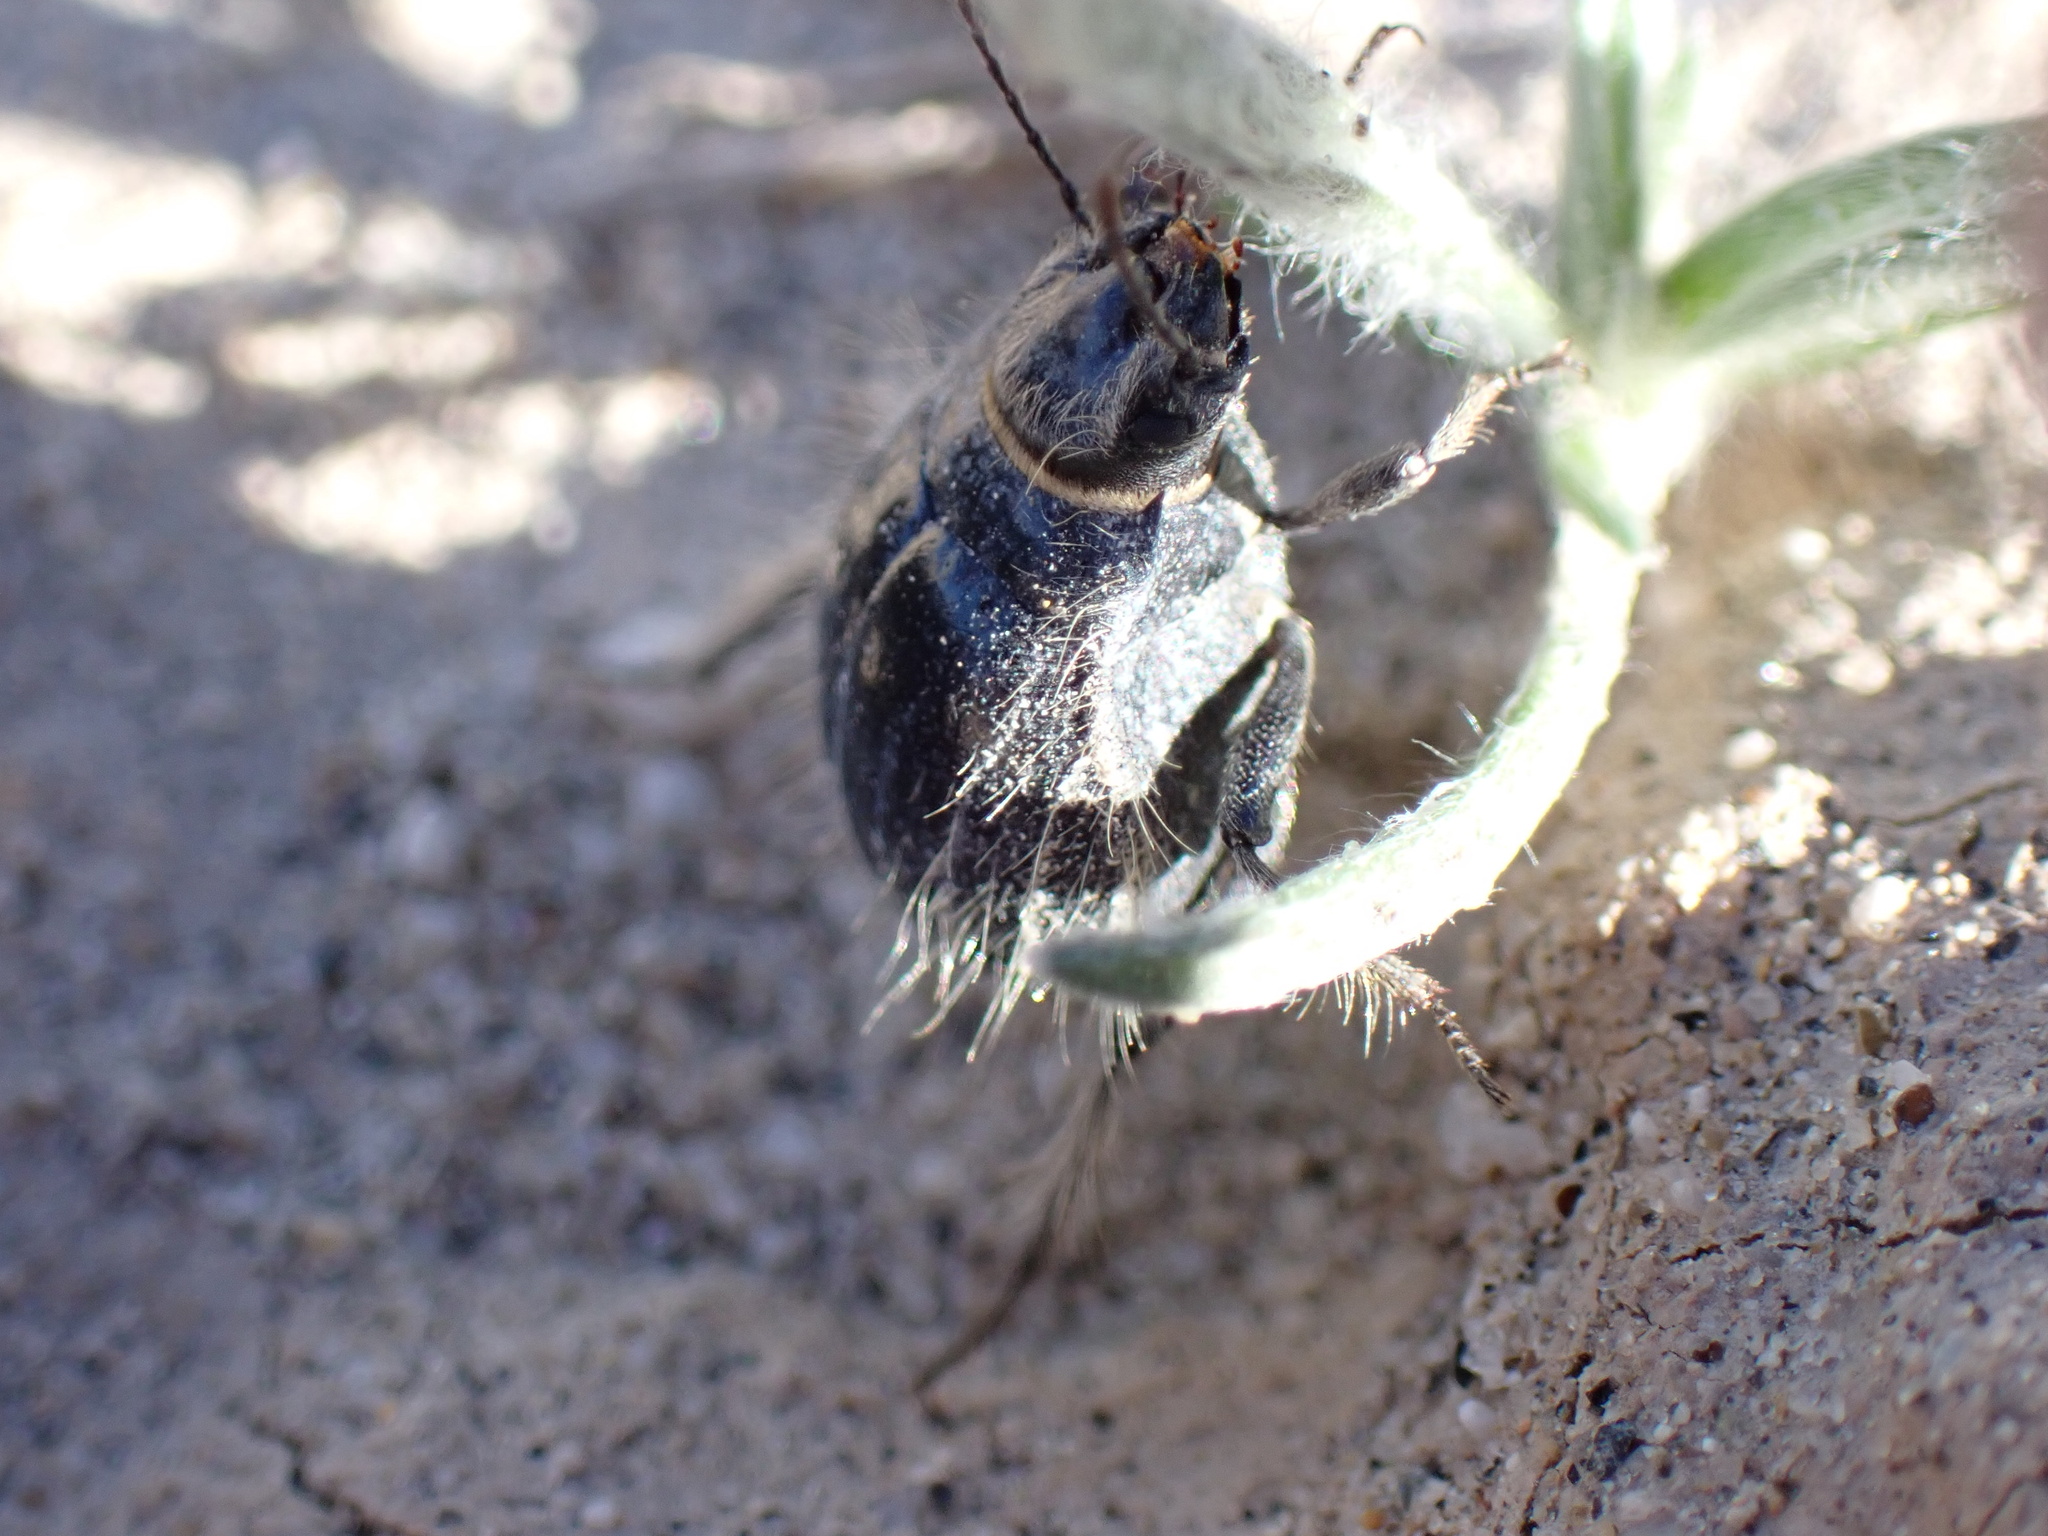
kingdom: Animalia
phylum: Arthropoda
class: Insecta
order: Coleoptera
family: Tenebrionidae
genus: Edrotes
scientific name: Edrotes ventricosus
